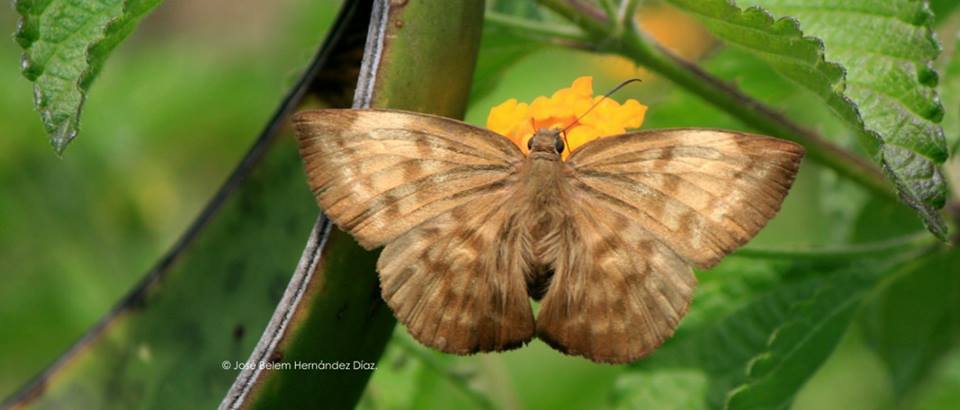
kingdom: Animalia
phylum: Arthropoda
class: Insecta
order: Lepidoptera
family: Hesperiidae
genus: Achlyodes
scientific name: Achlyodes pallida
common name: Pale sicklewing
